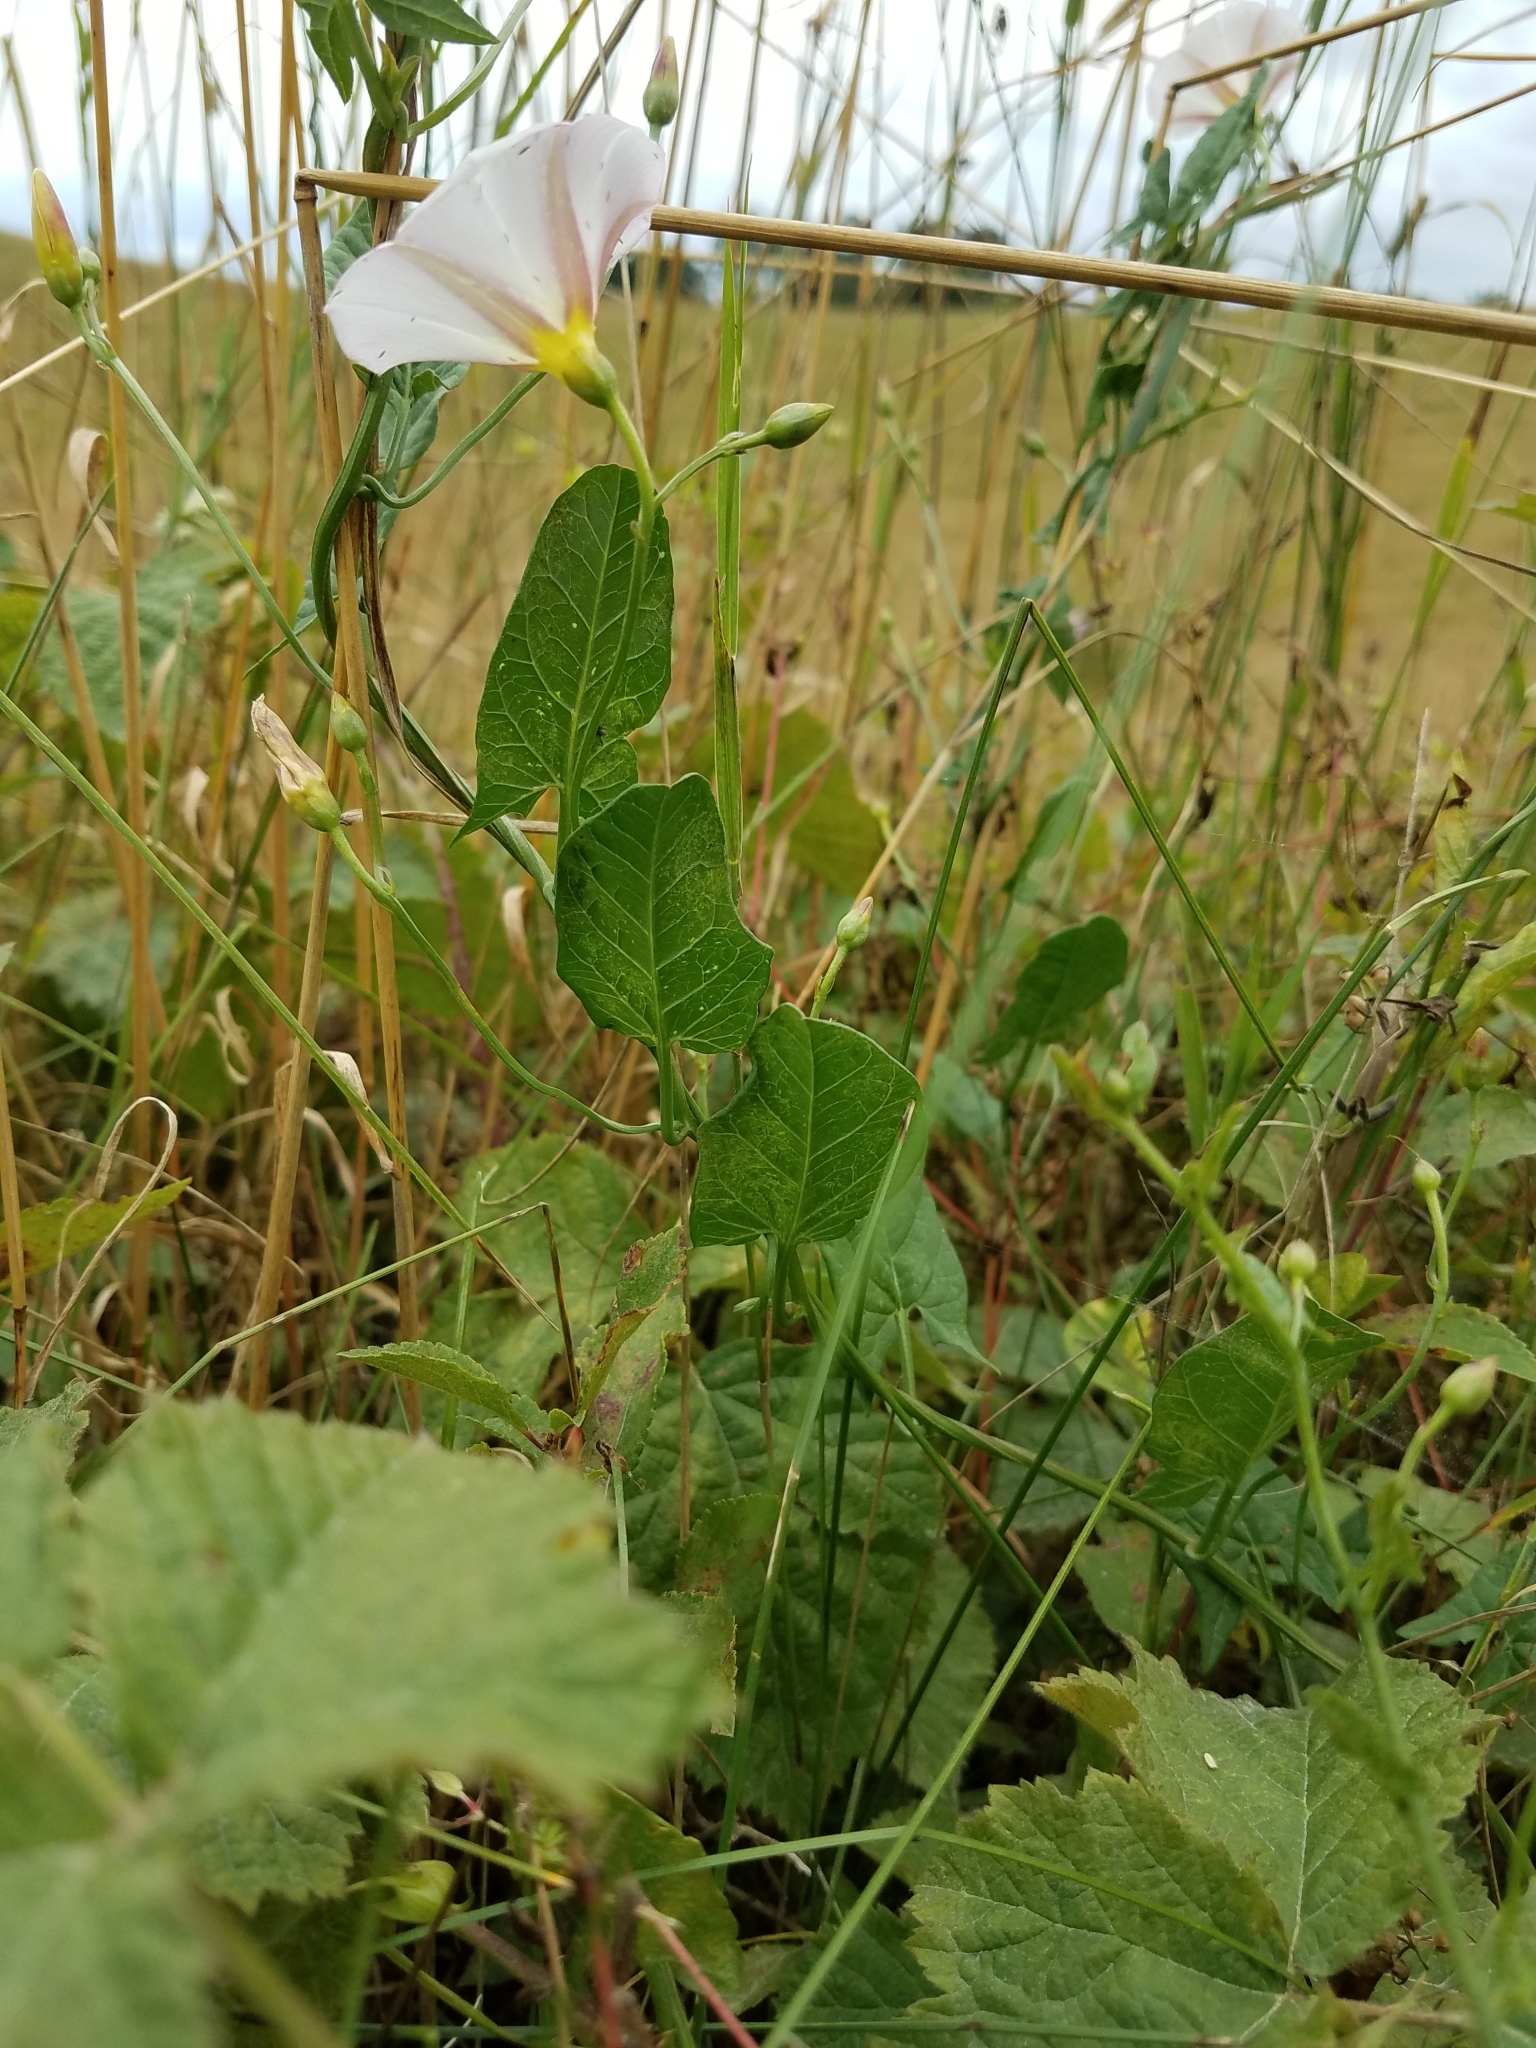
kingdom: Plantae
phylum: Tracheophyta
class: Magnoliopsida
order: Solanales
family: Convolvulaceae
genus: Convolvulus
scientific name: Convolvulus arvensis
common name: Field bindweed
